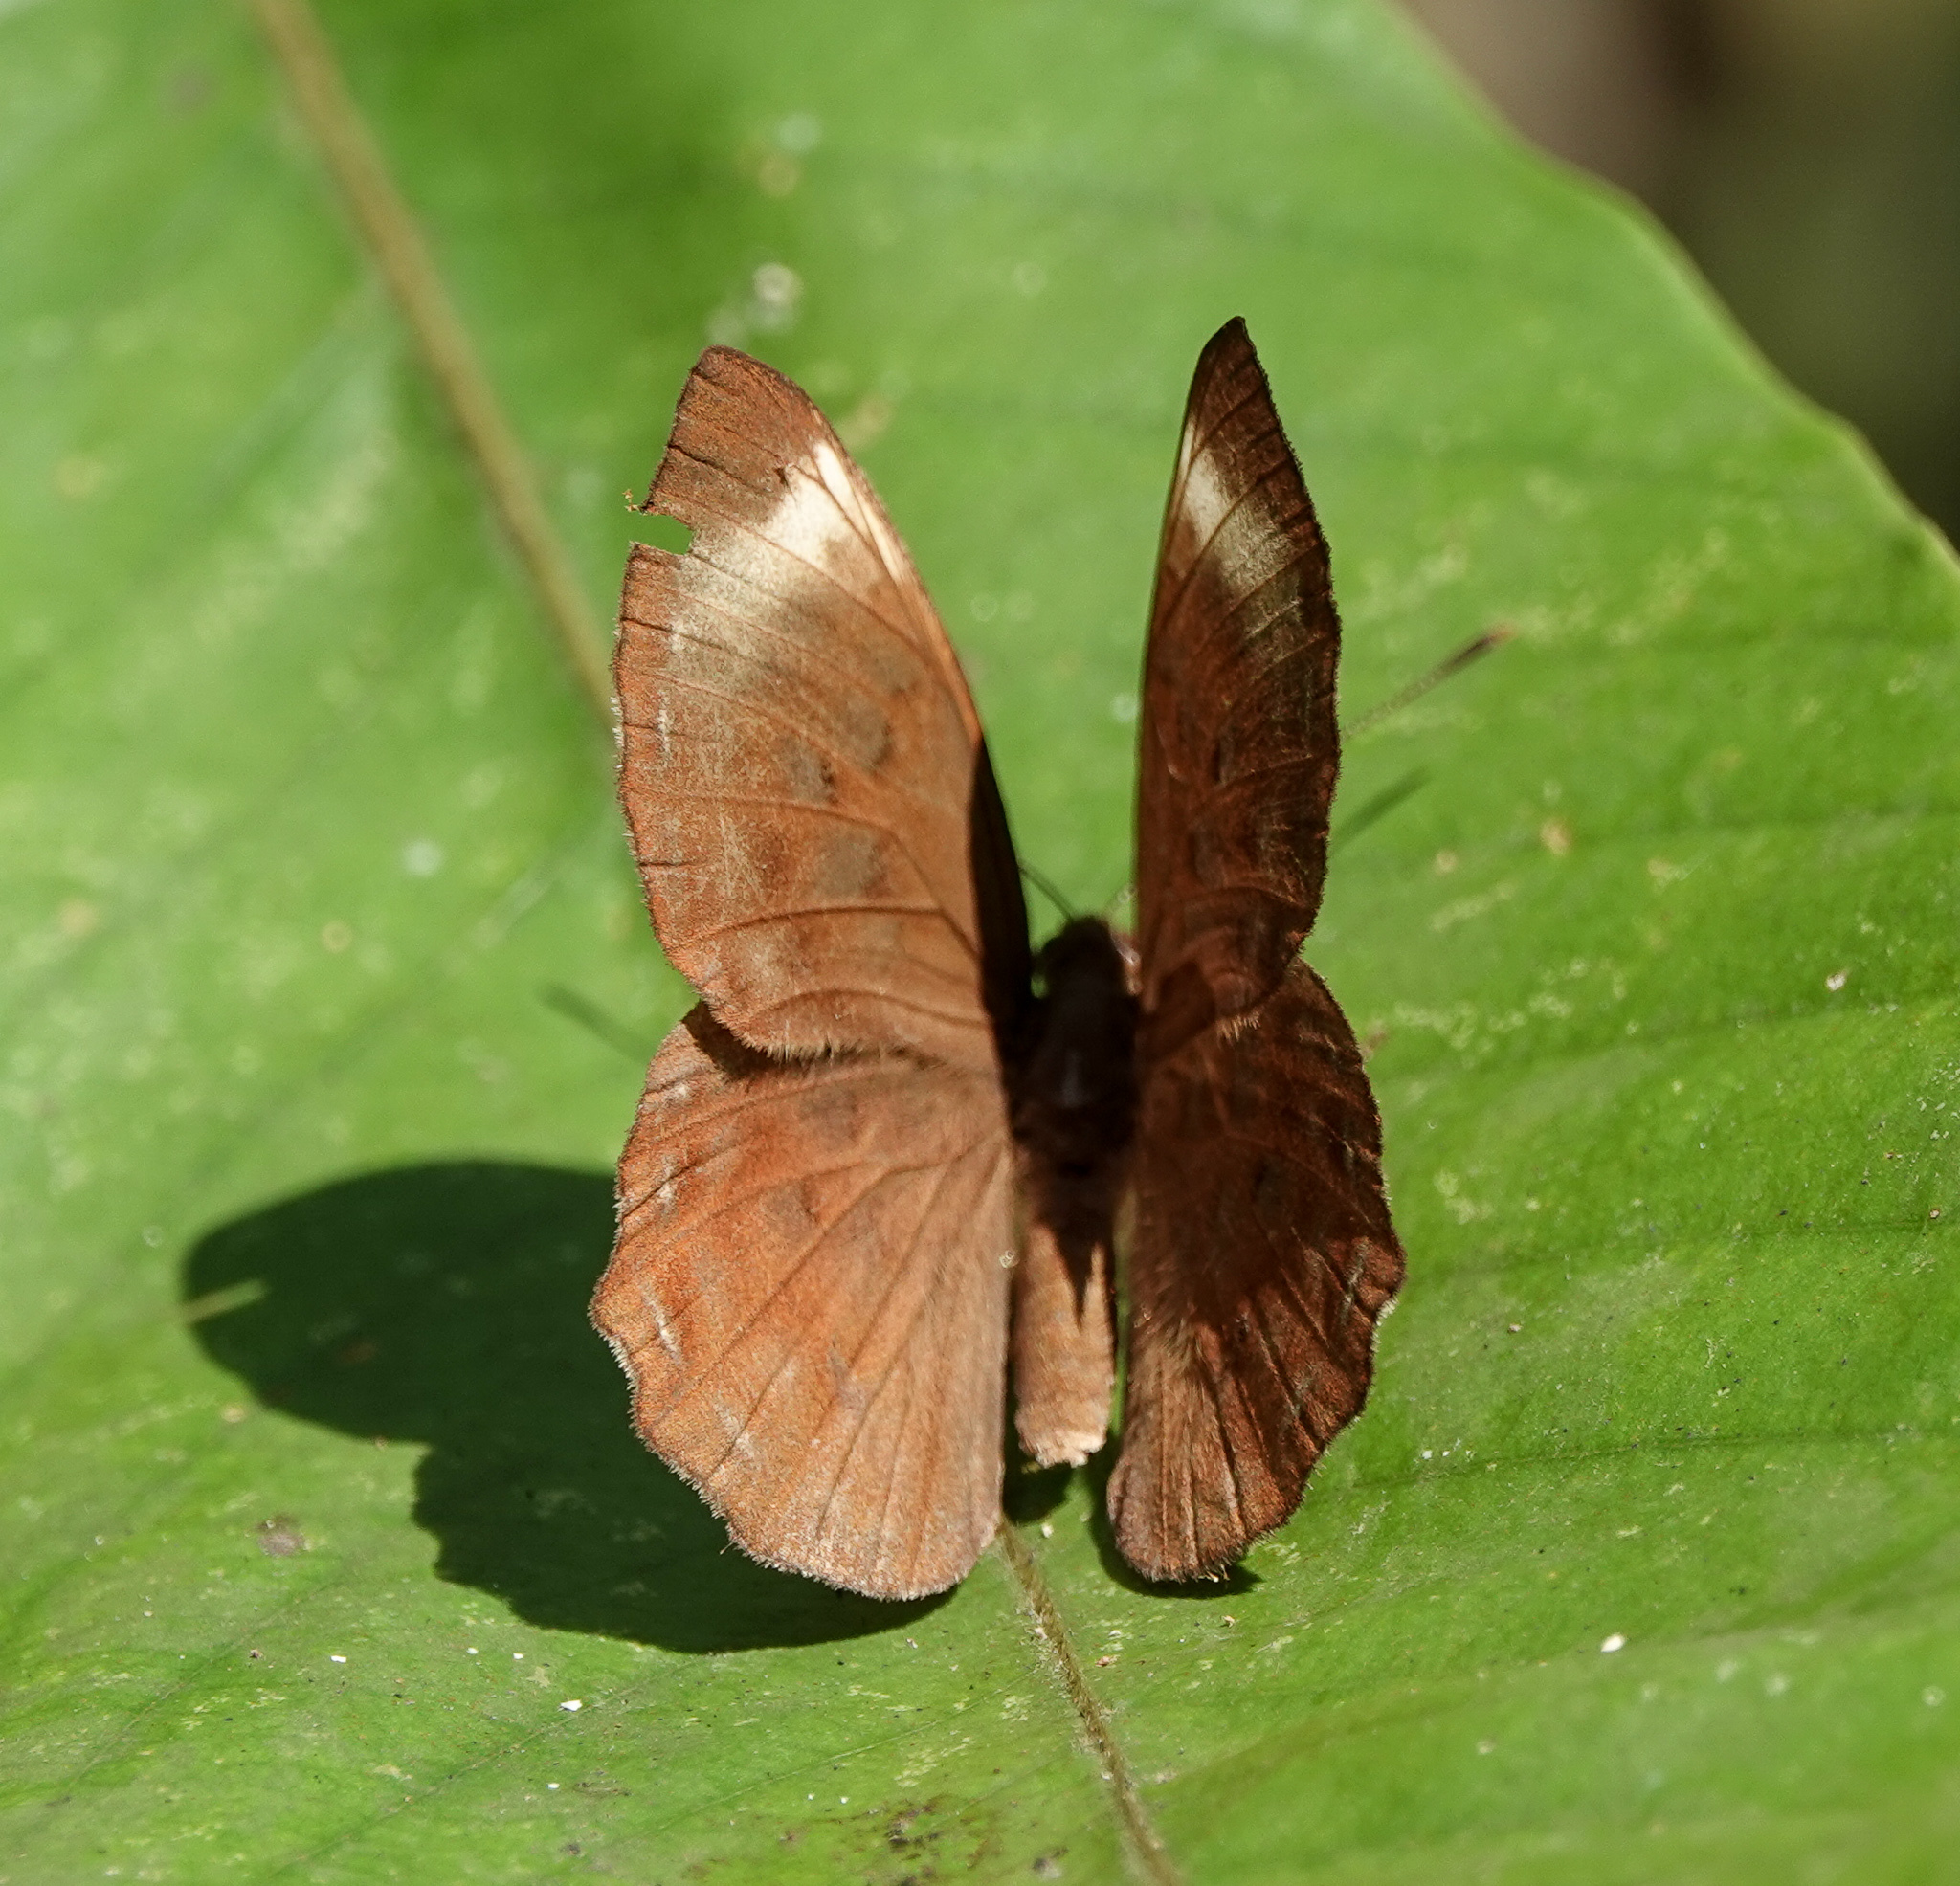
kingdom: Animalia
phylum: Arthropoda
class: Insecta
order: Lepidoptera
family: Erebidae
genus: Dysschema
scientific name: Dysschema
